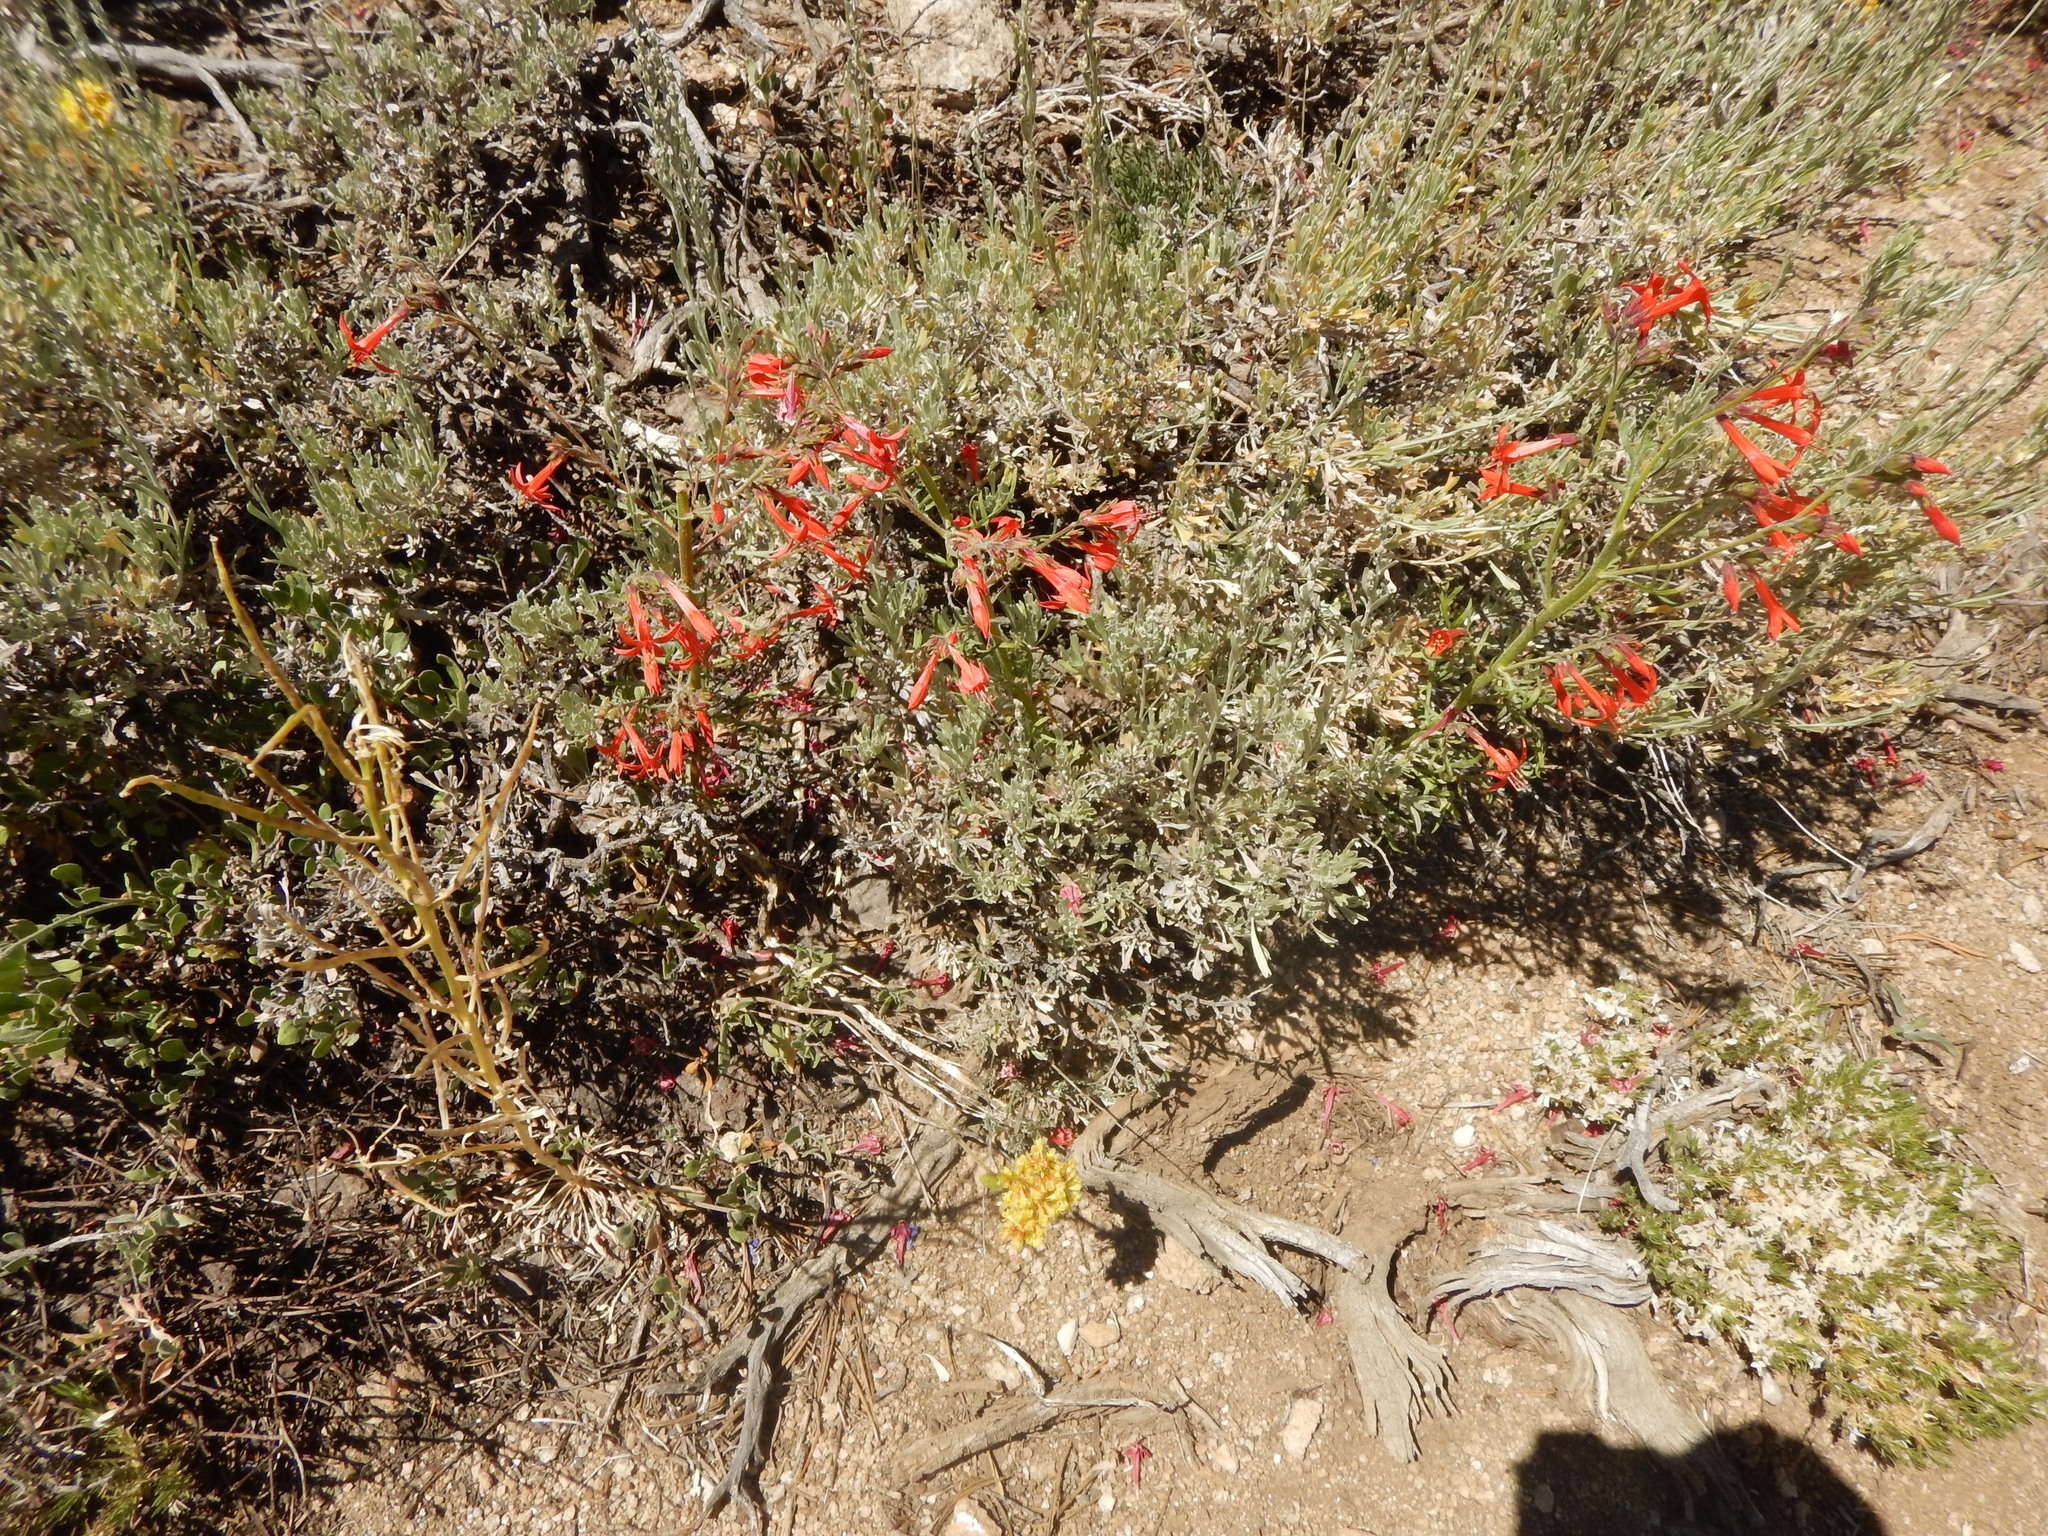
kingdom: Plantae
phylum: Tracheophyta
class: Magnoliopsida
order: Ericales
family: Polemoniaceae
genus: Ipomopsis
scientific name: Ipomopsis aggregata
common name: Scarlet gilia
